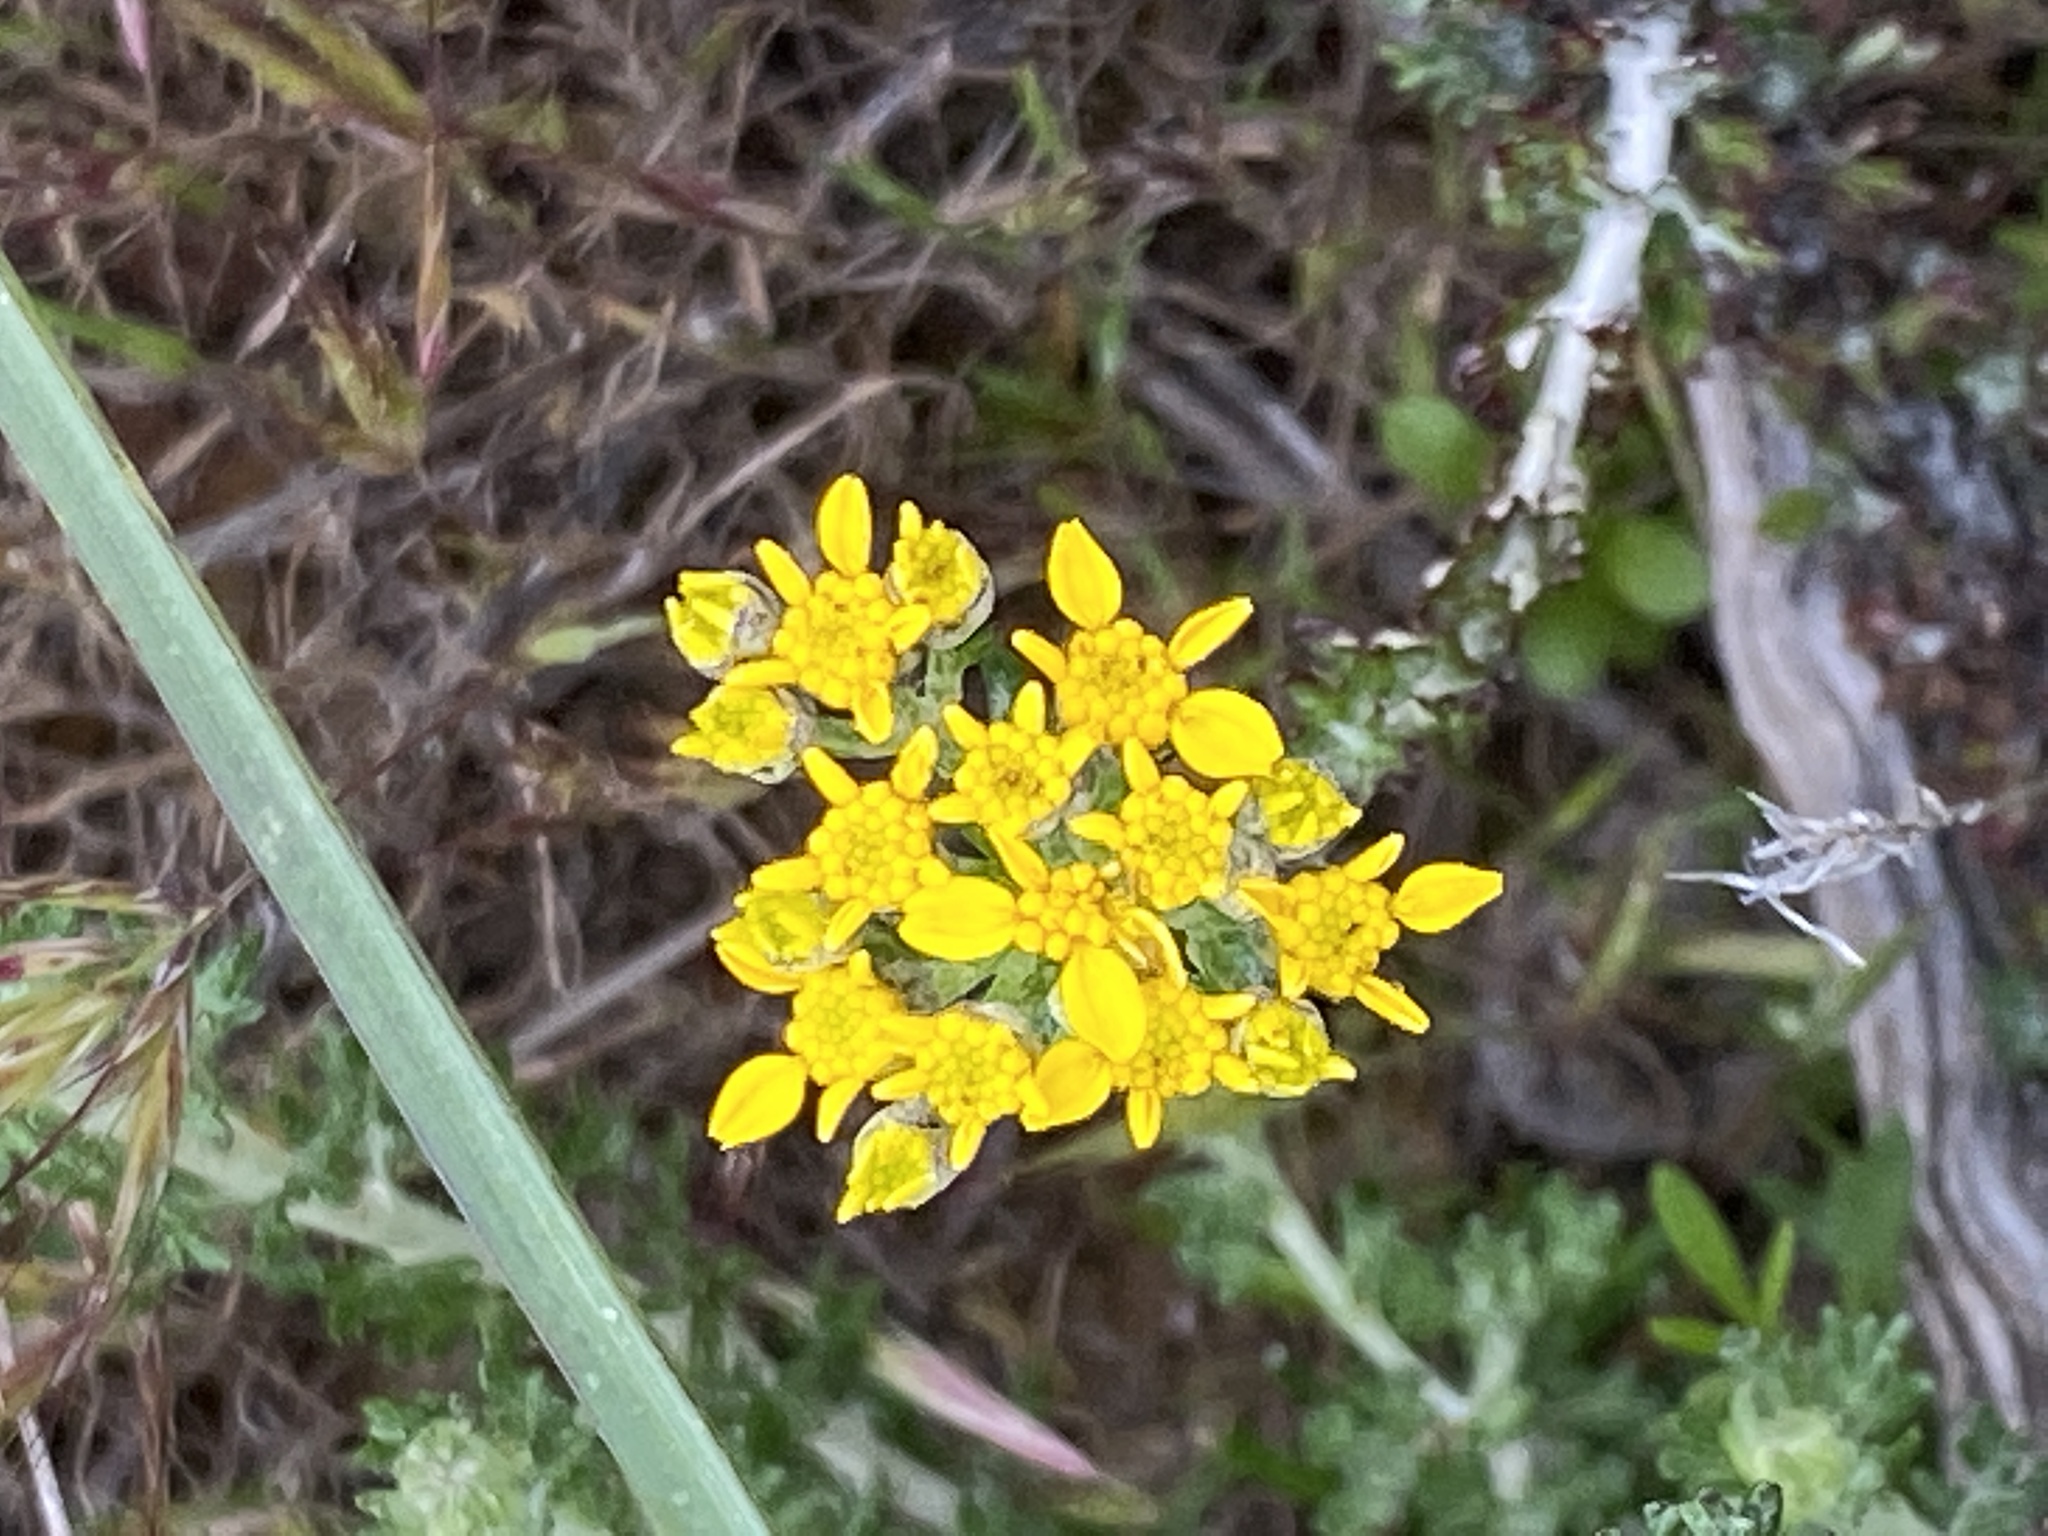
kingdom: Plantae
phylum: Tracheophyta
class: Magnoliopsida
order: Asterales
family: Asteraceae
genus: Eriophyllum
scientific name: Eriophyllum confertiflorum
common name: Golden-yarrow
